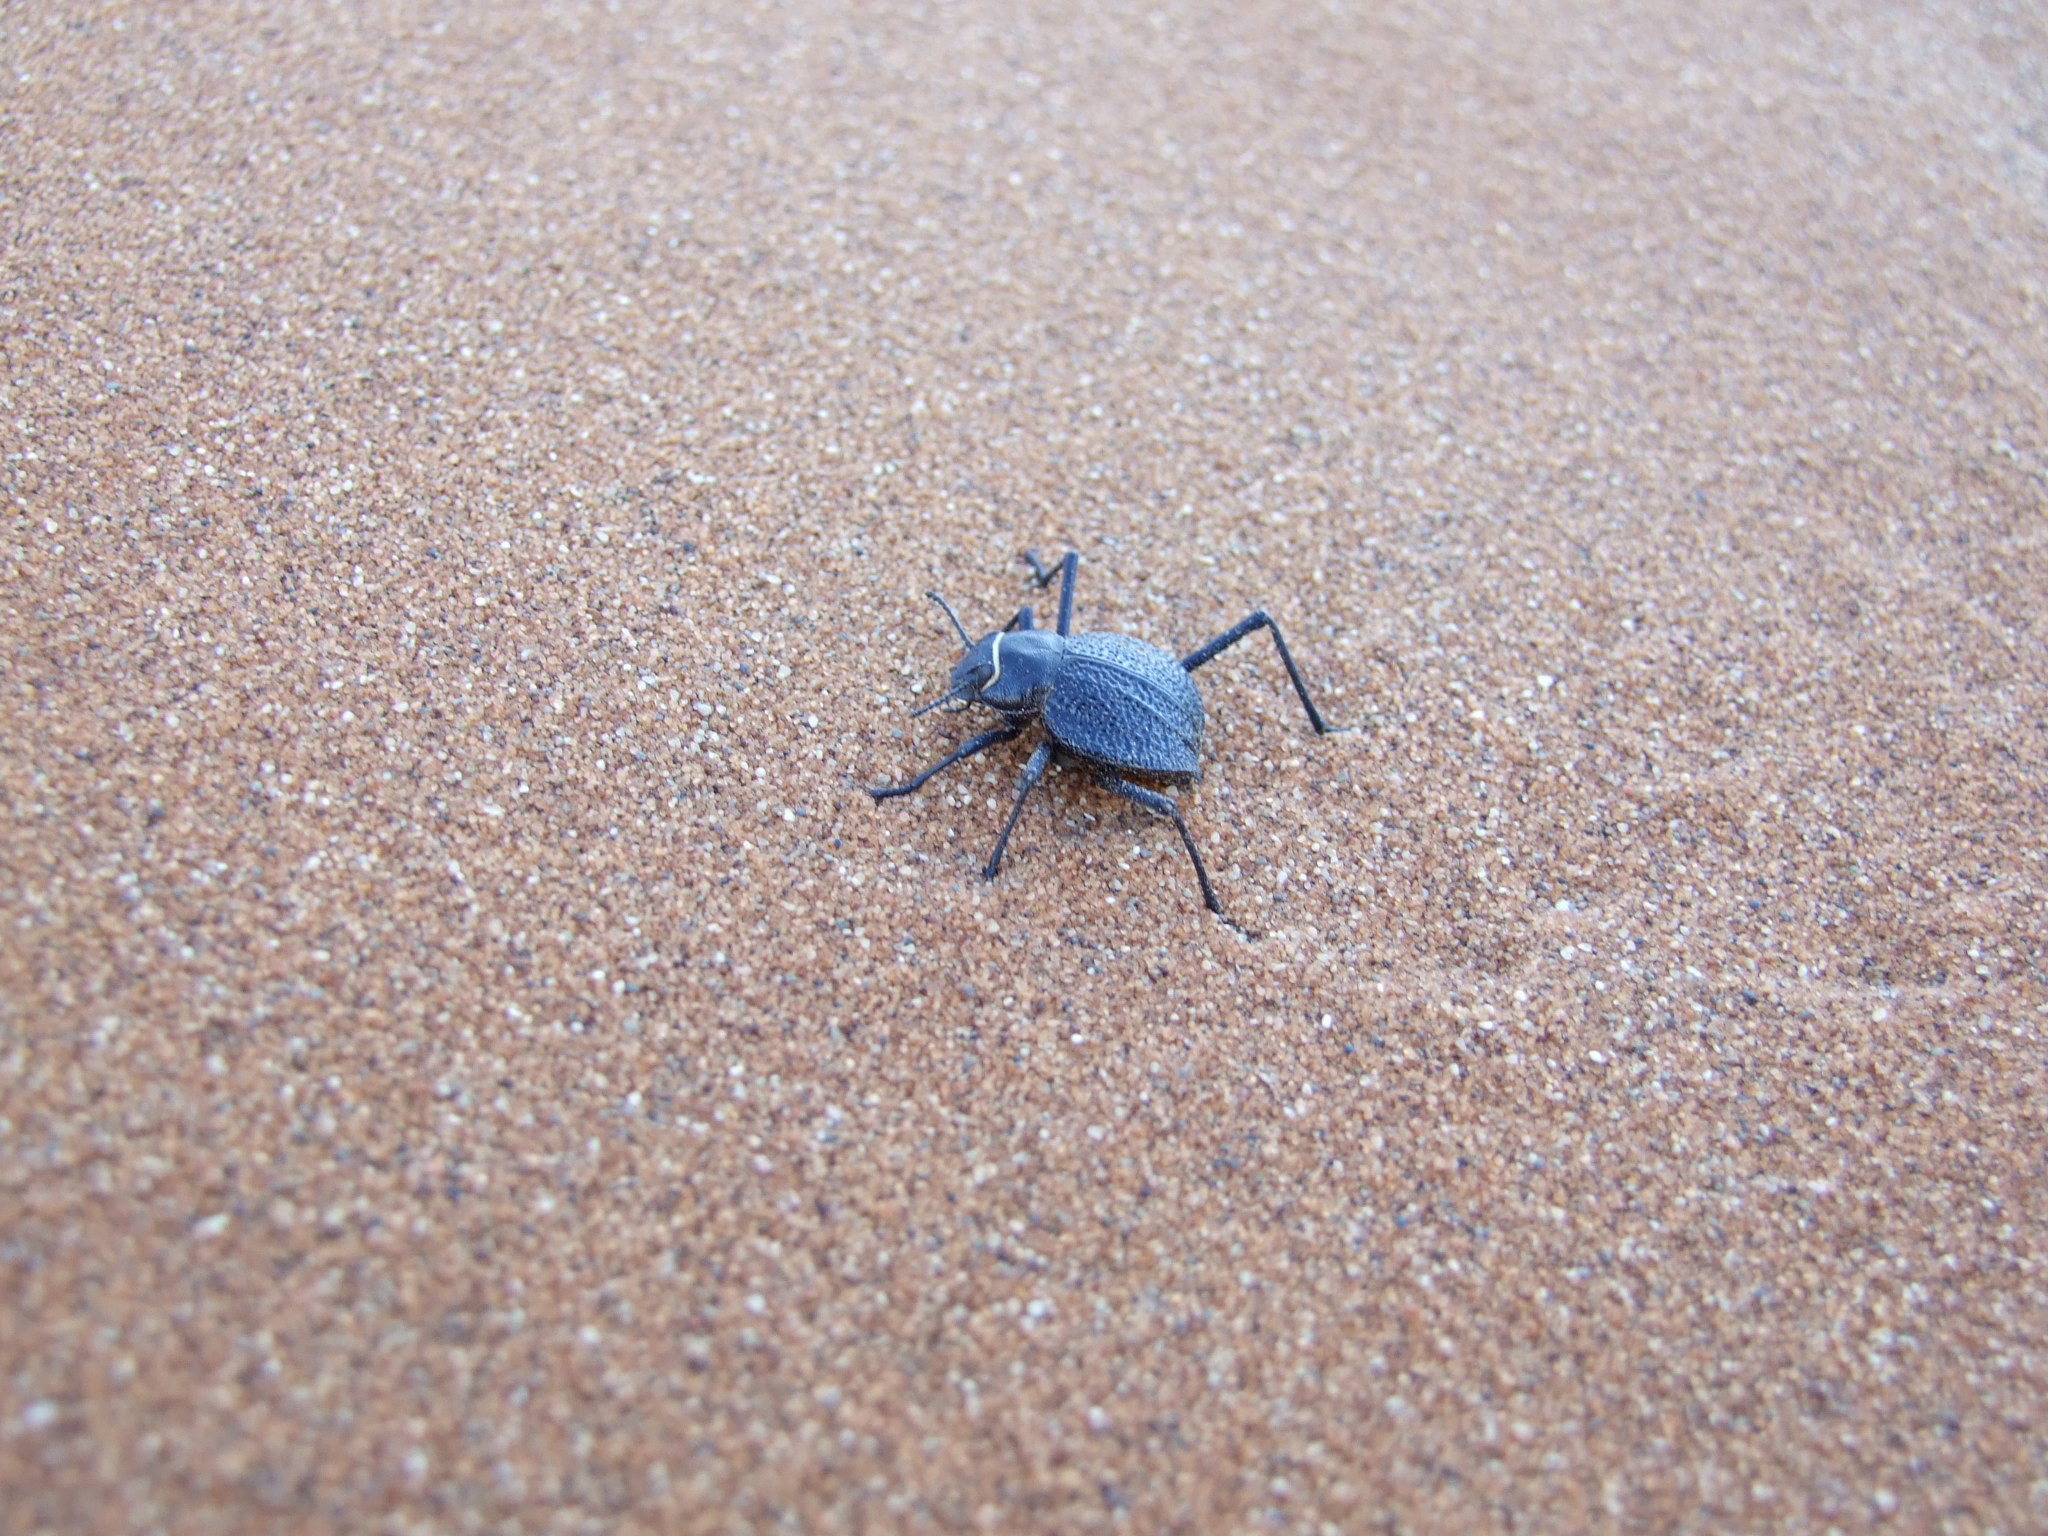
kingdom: Animalia
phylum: Arthropoda
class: Insecta
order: Coleoptera
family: Tenebrionidae
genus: Onymacris
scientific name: Onymacris
